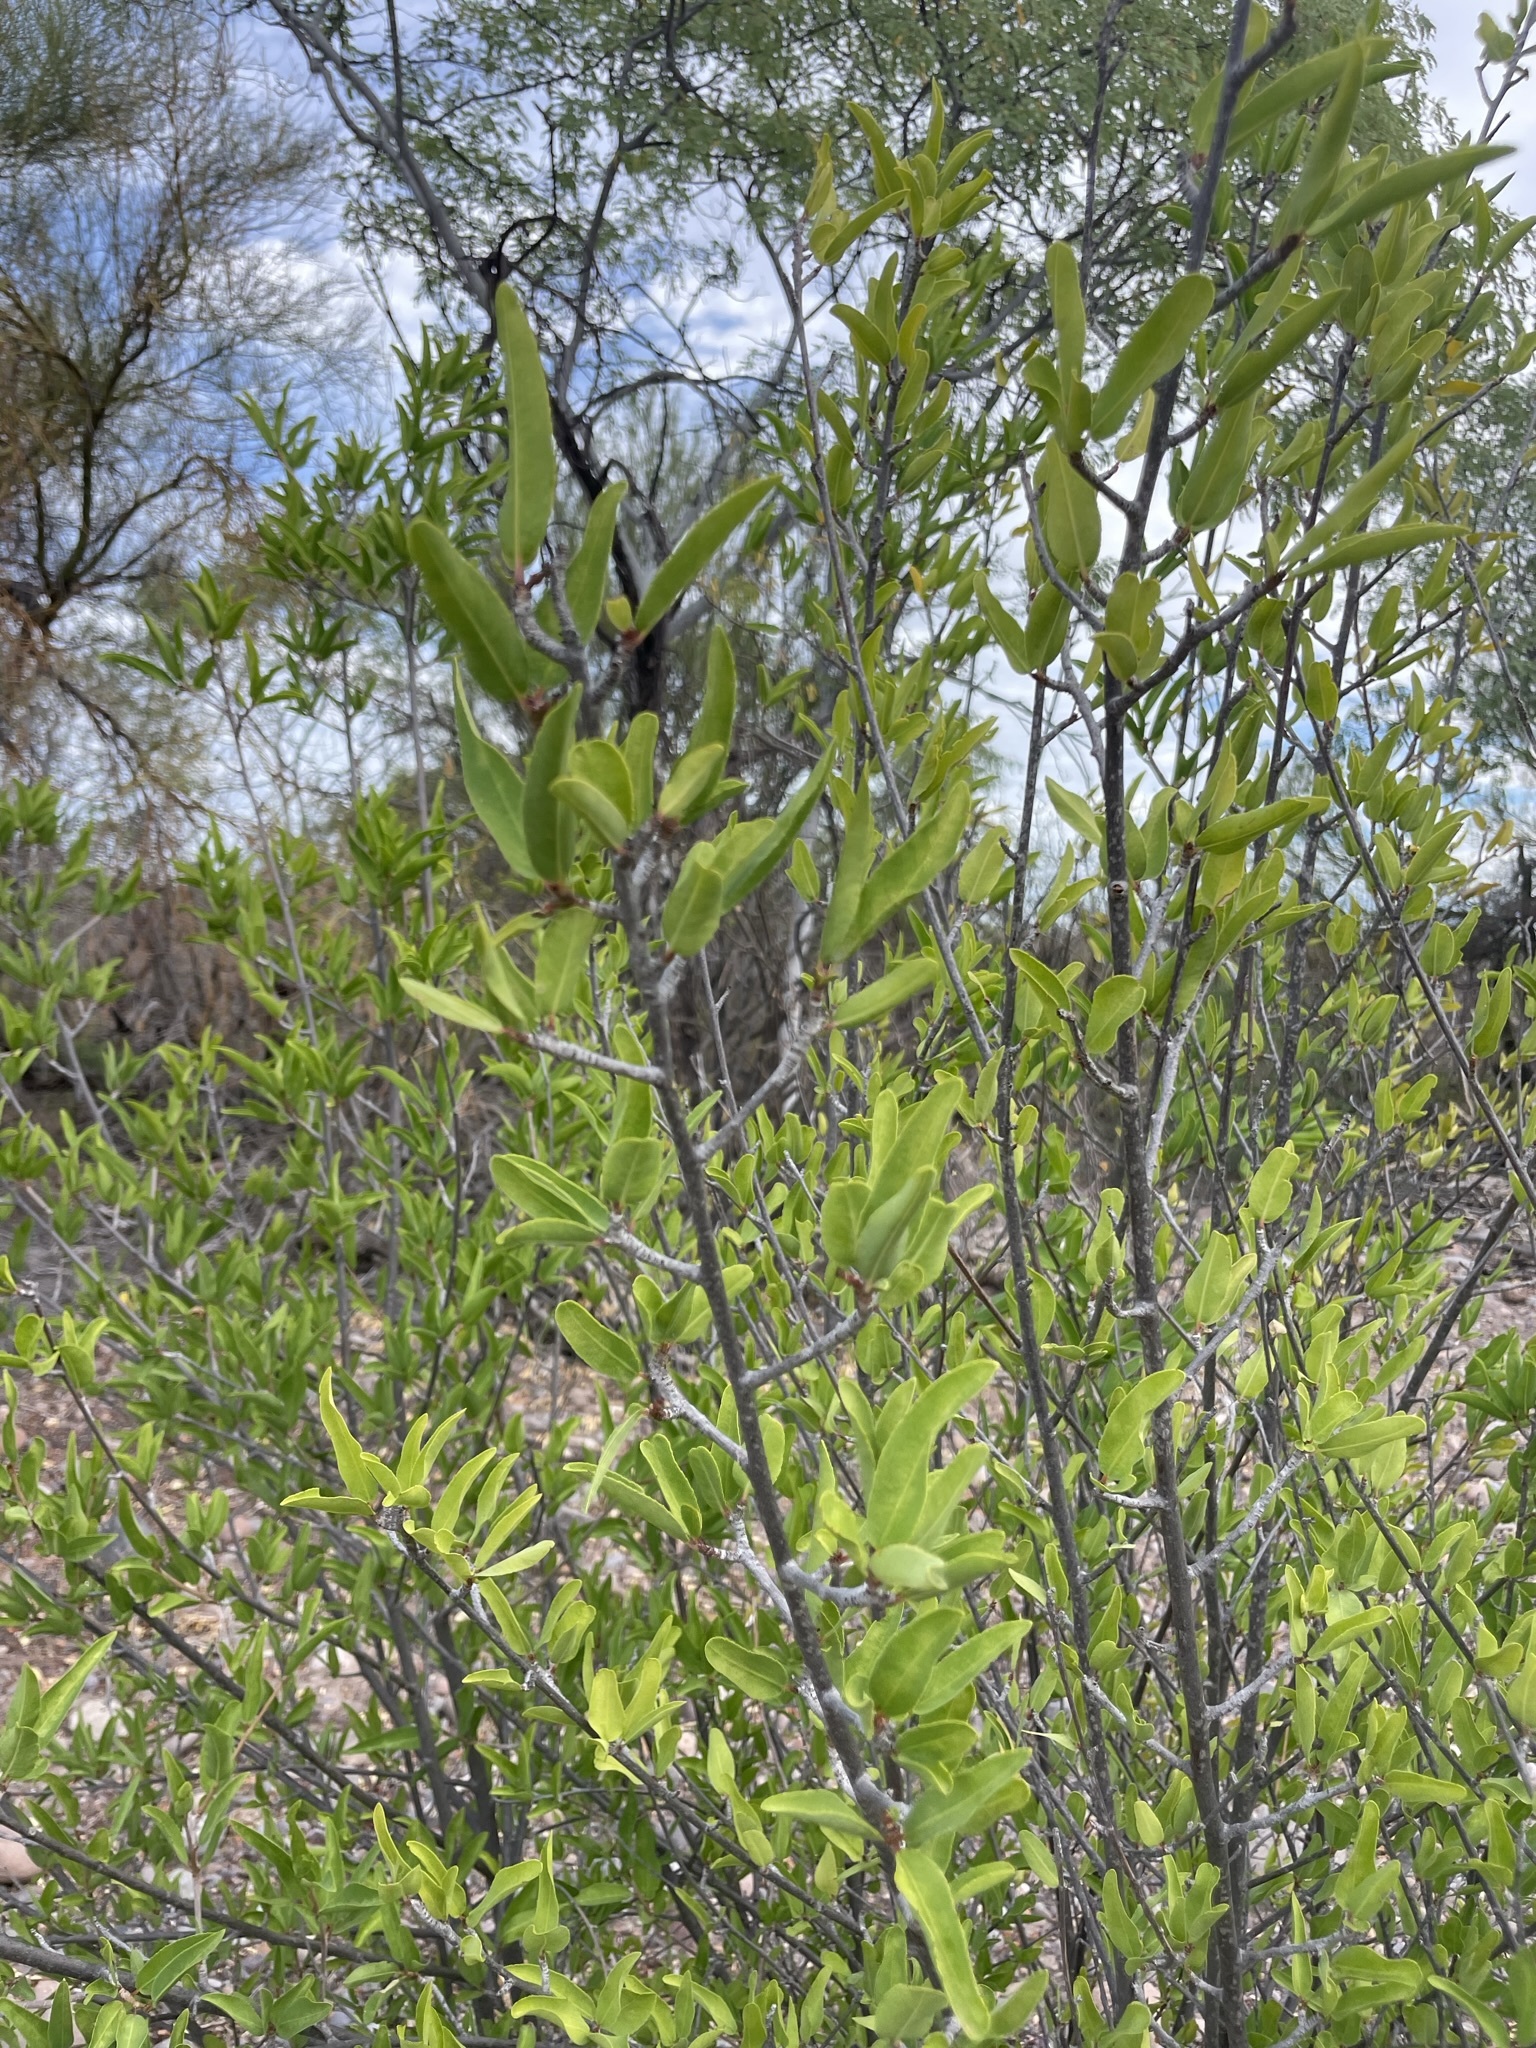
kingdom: Plantae
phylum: Tracheophyta
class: Magnoliopsida
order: Malpighiales
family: Euphorbiaceae
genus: Pleradenophora
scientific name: Pleradenophora bilocularis
